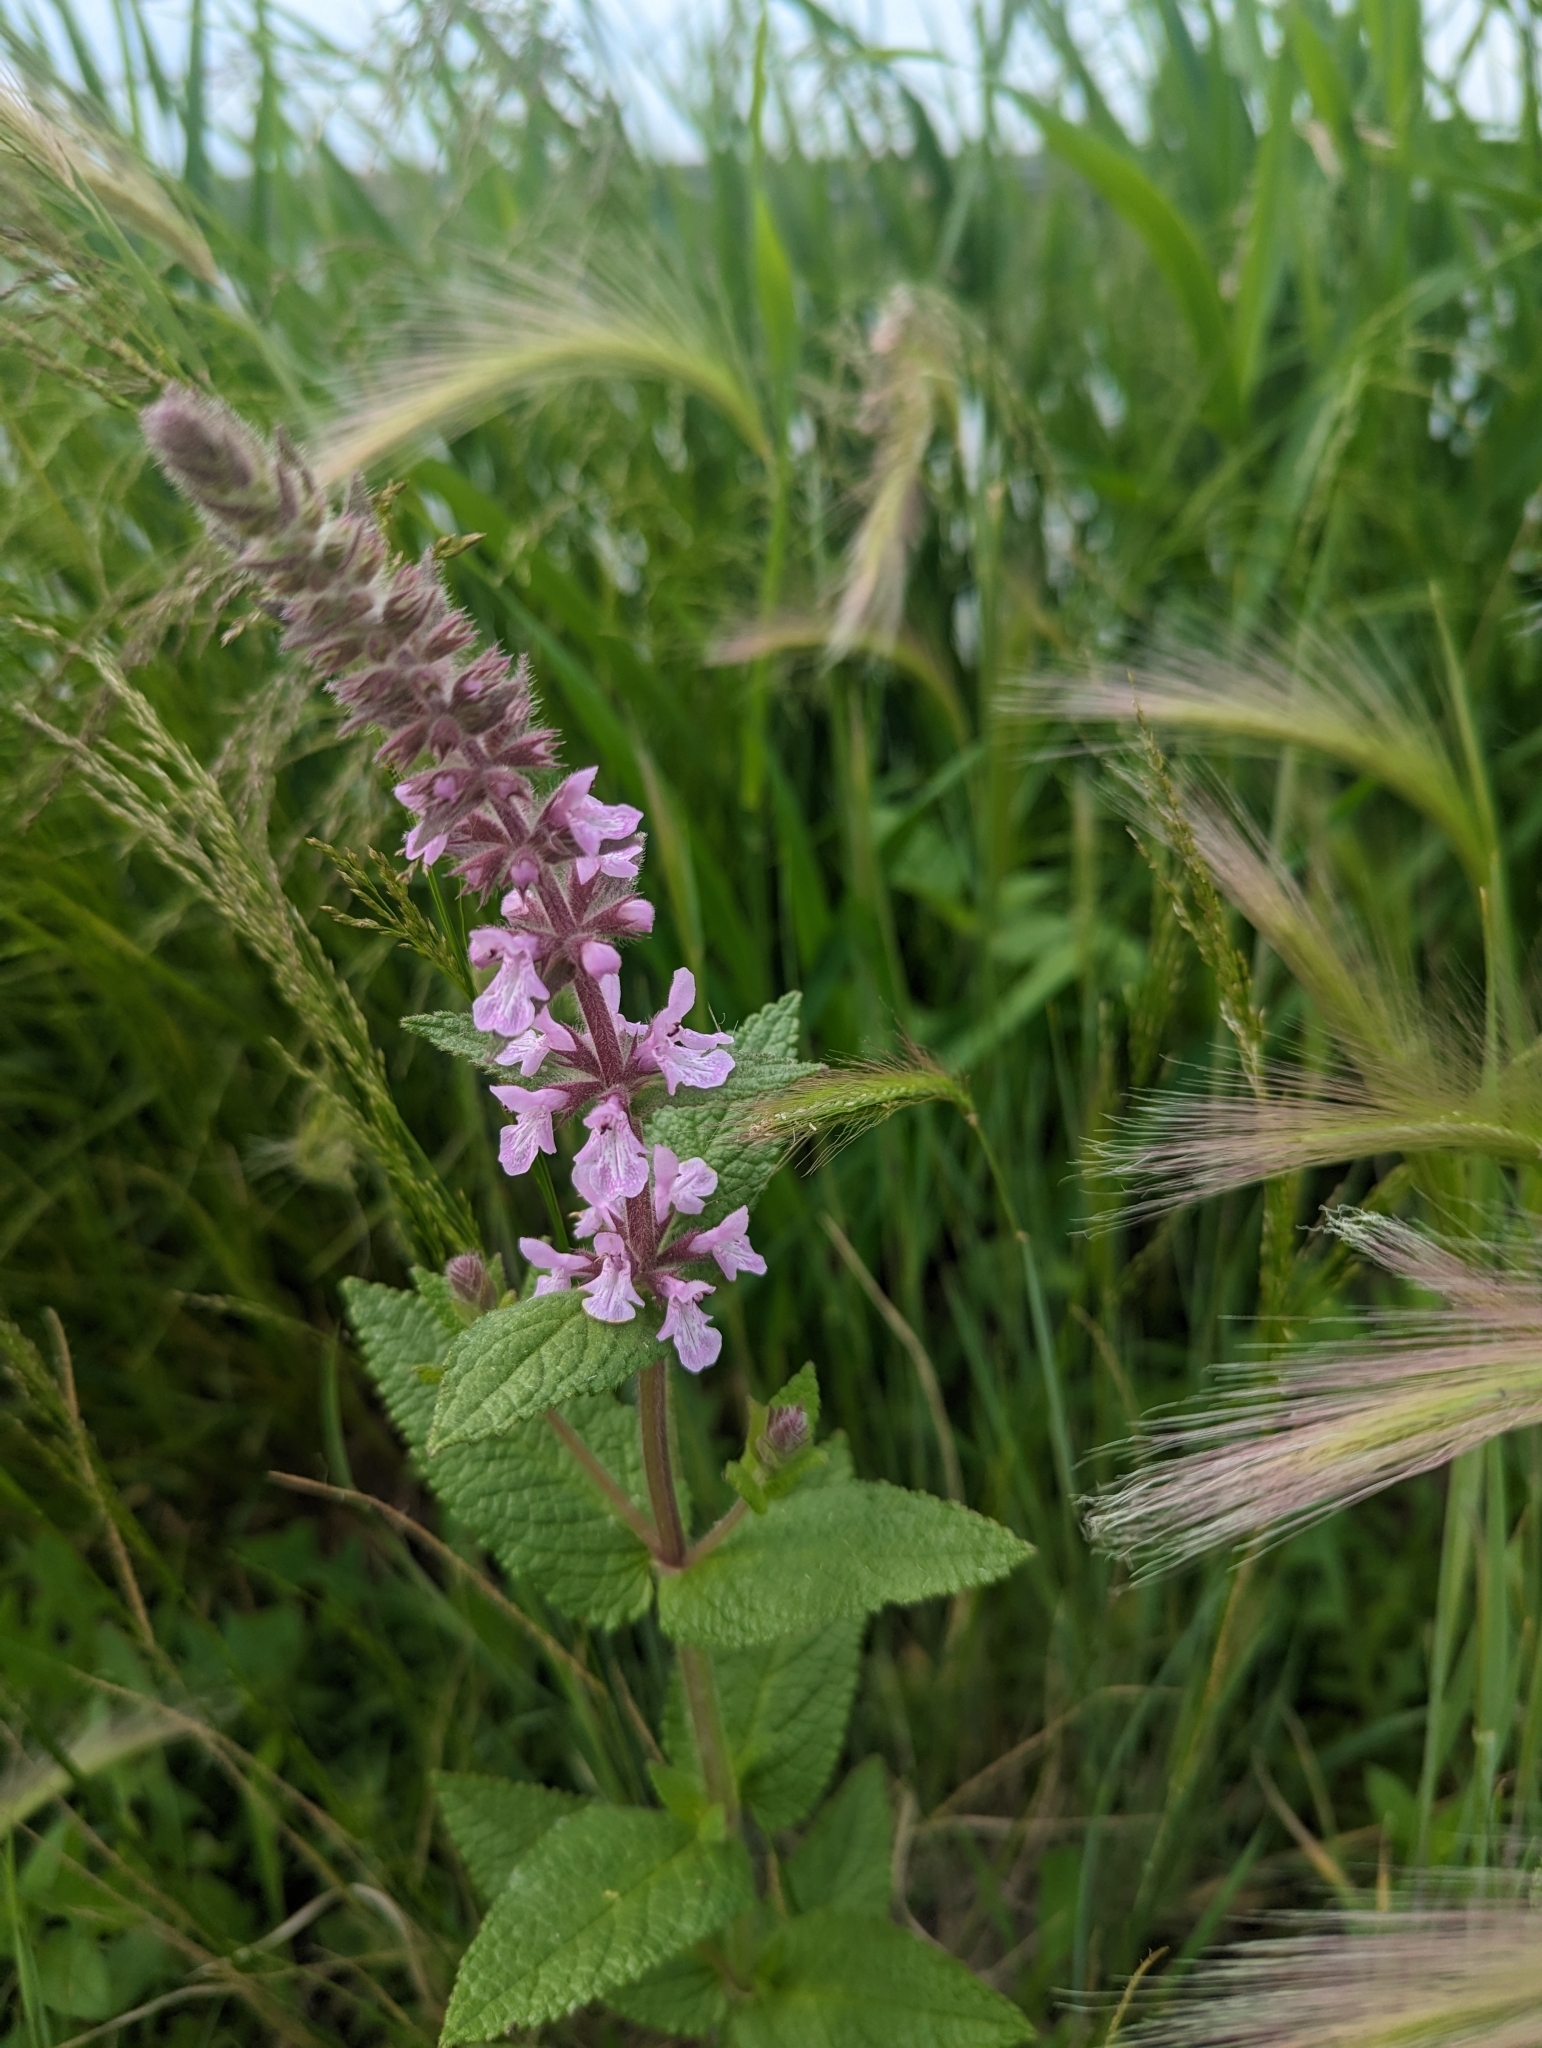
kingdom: Plantae
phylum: Tracheophyta
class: Magnoliopsida
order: Lamiales
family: Lamiaceae
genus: Stachys
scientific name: Stachys pilosa
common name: Hairy hedge-nettle
